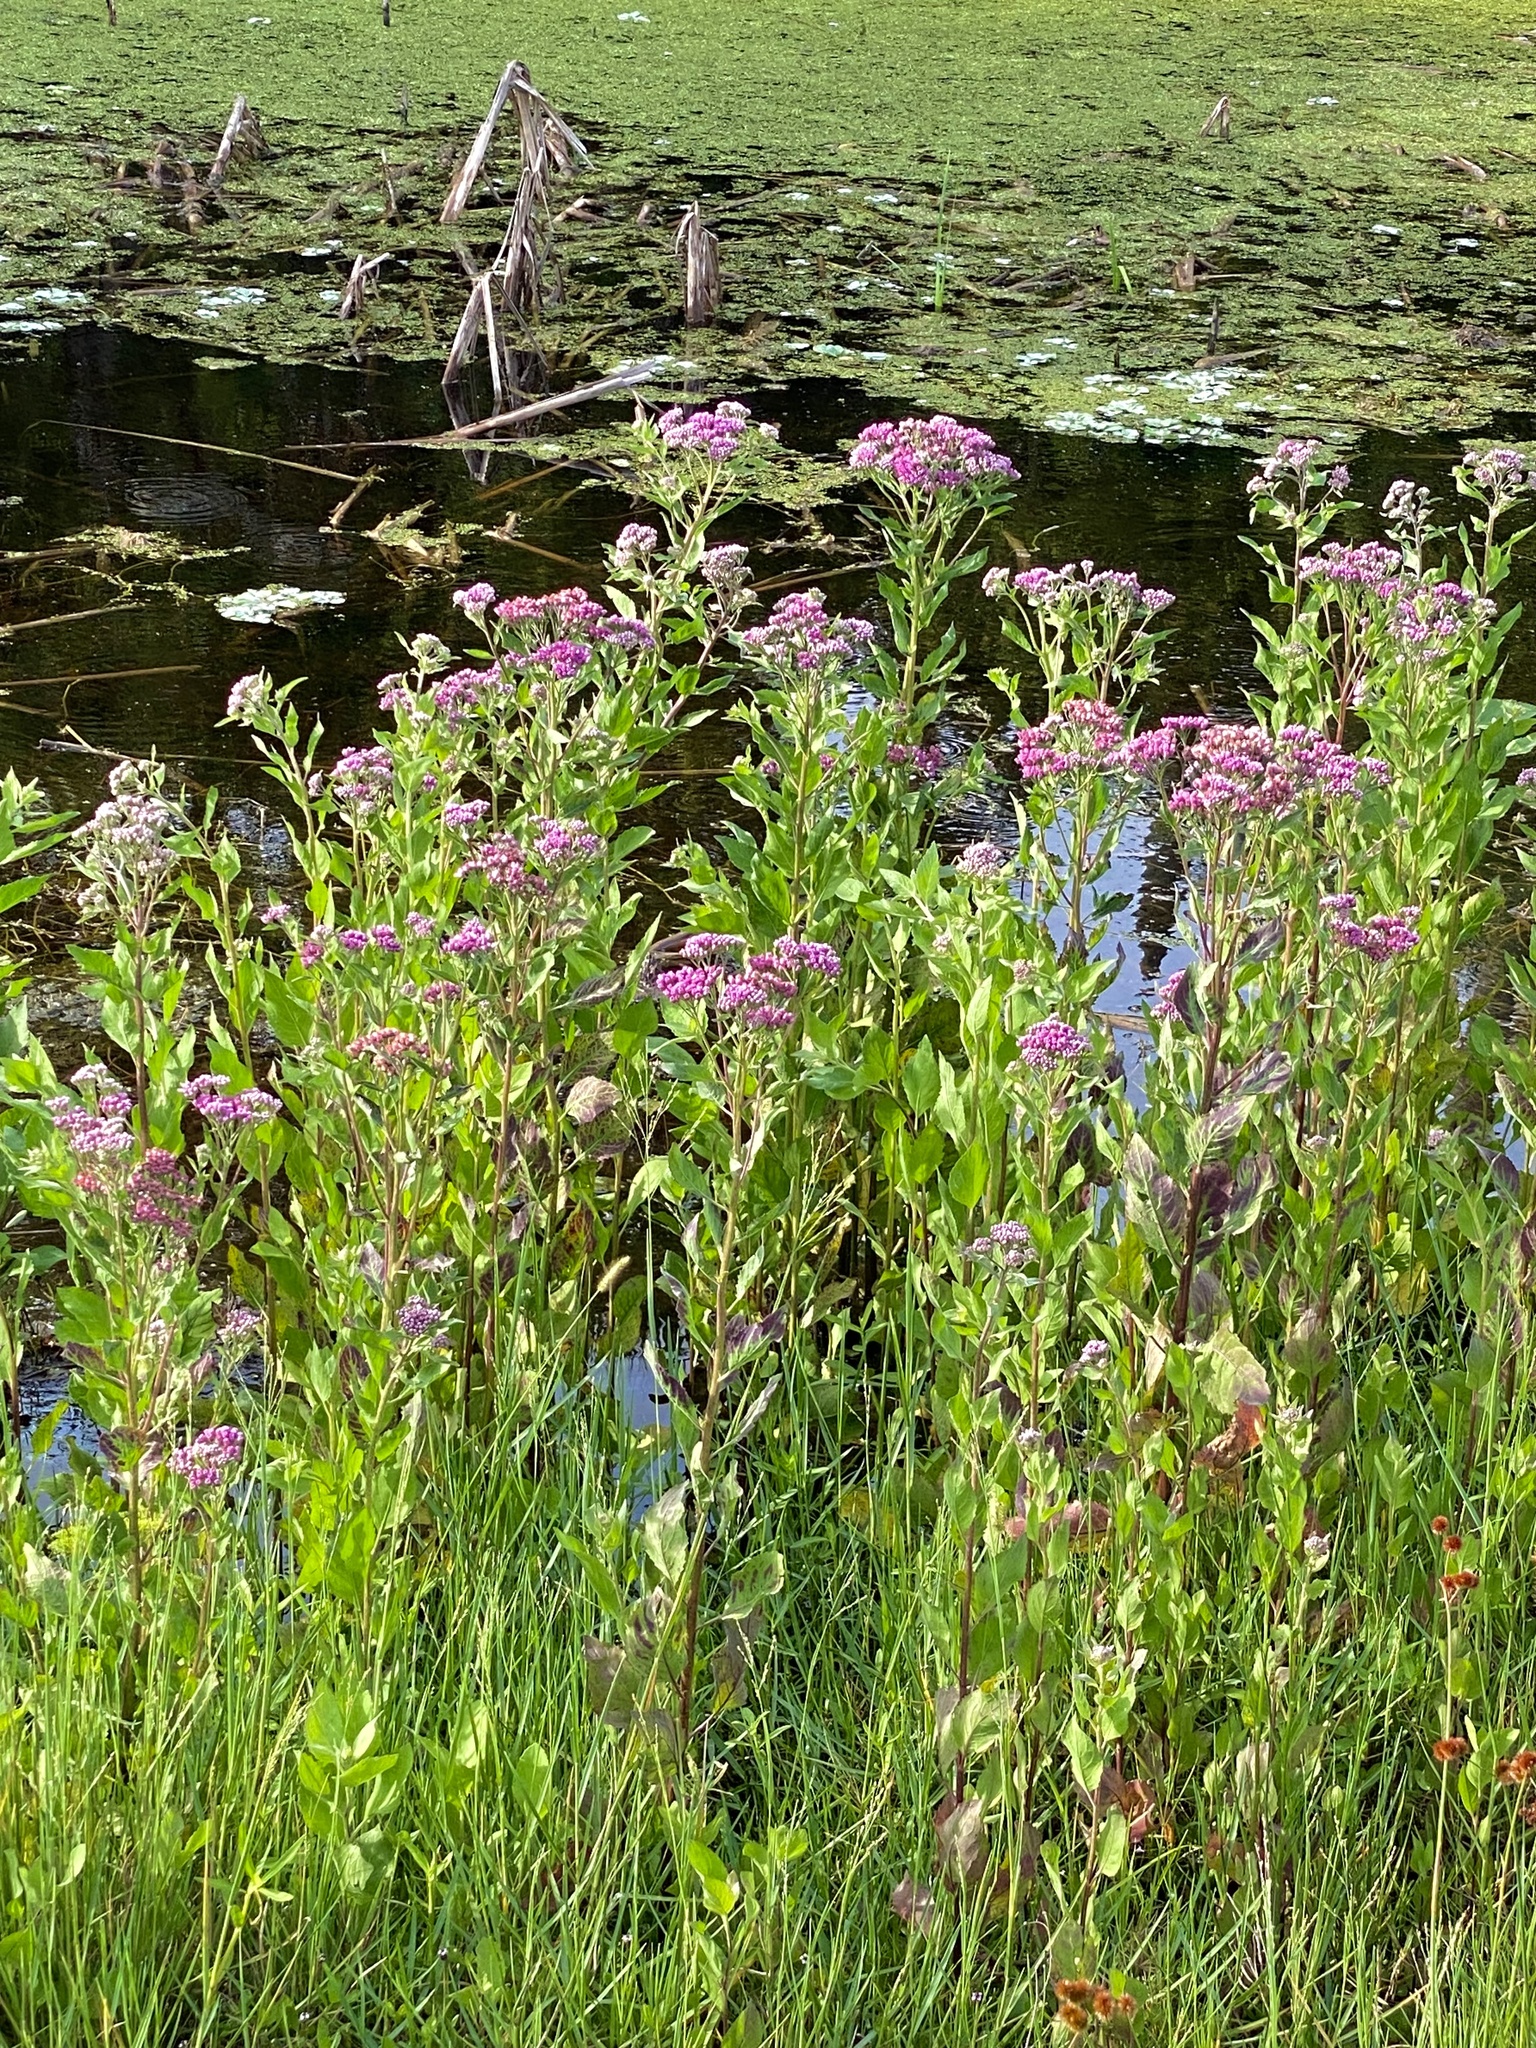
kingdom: Plantae
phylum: Tracheophyta
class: Magnoliopsida
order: Asterales
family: Asteraceae
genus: Pluchea
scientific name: Pluchea odorata
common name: Saltmarsh fleabane
